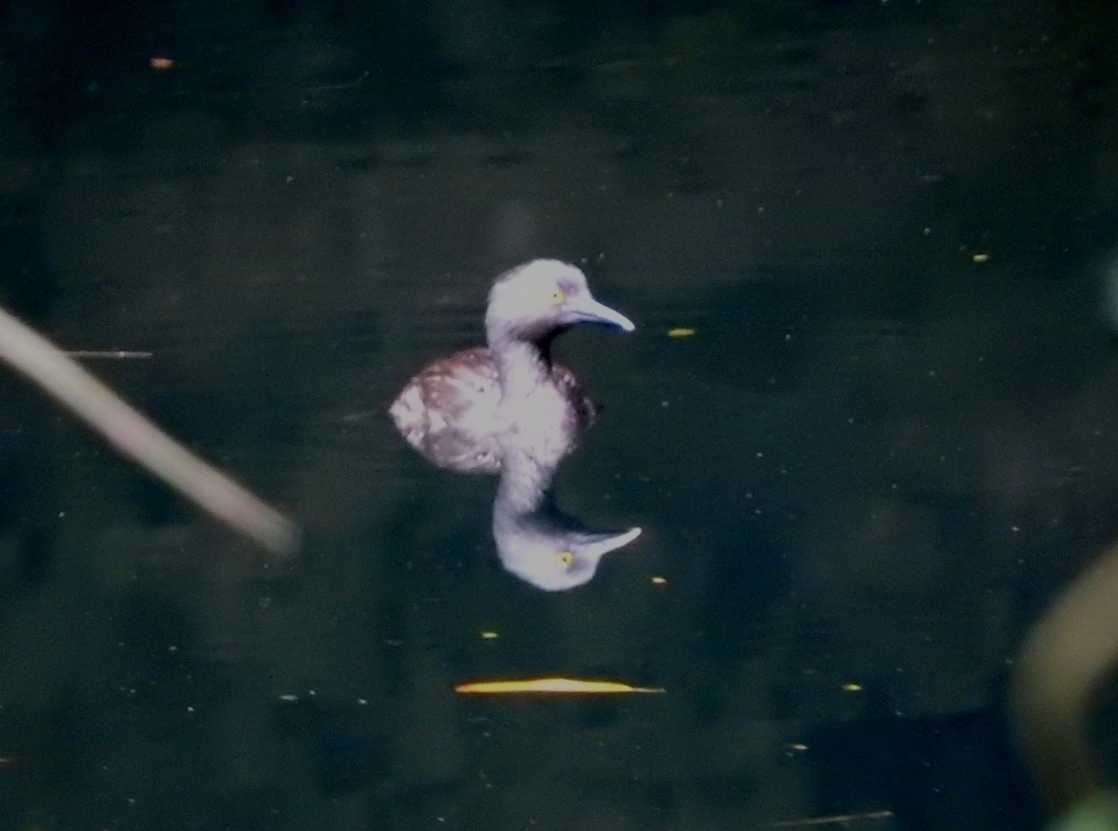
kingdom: Animalia
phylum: Chordata
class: Aves
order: Podicipediformes
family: Podicipedidae
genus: Tachybaptus
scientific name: Tachybaptus dominicus
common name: Least grebe
